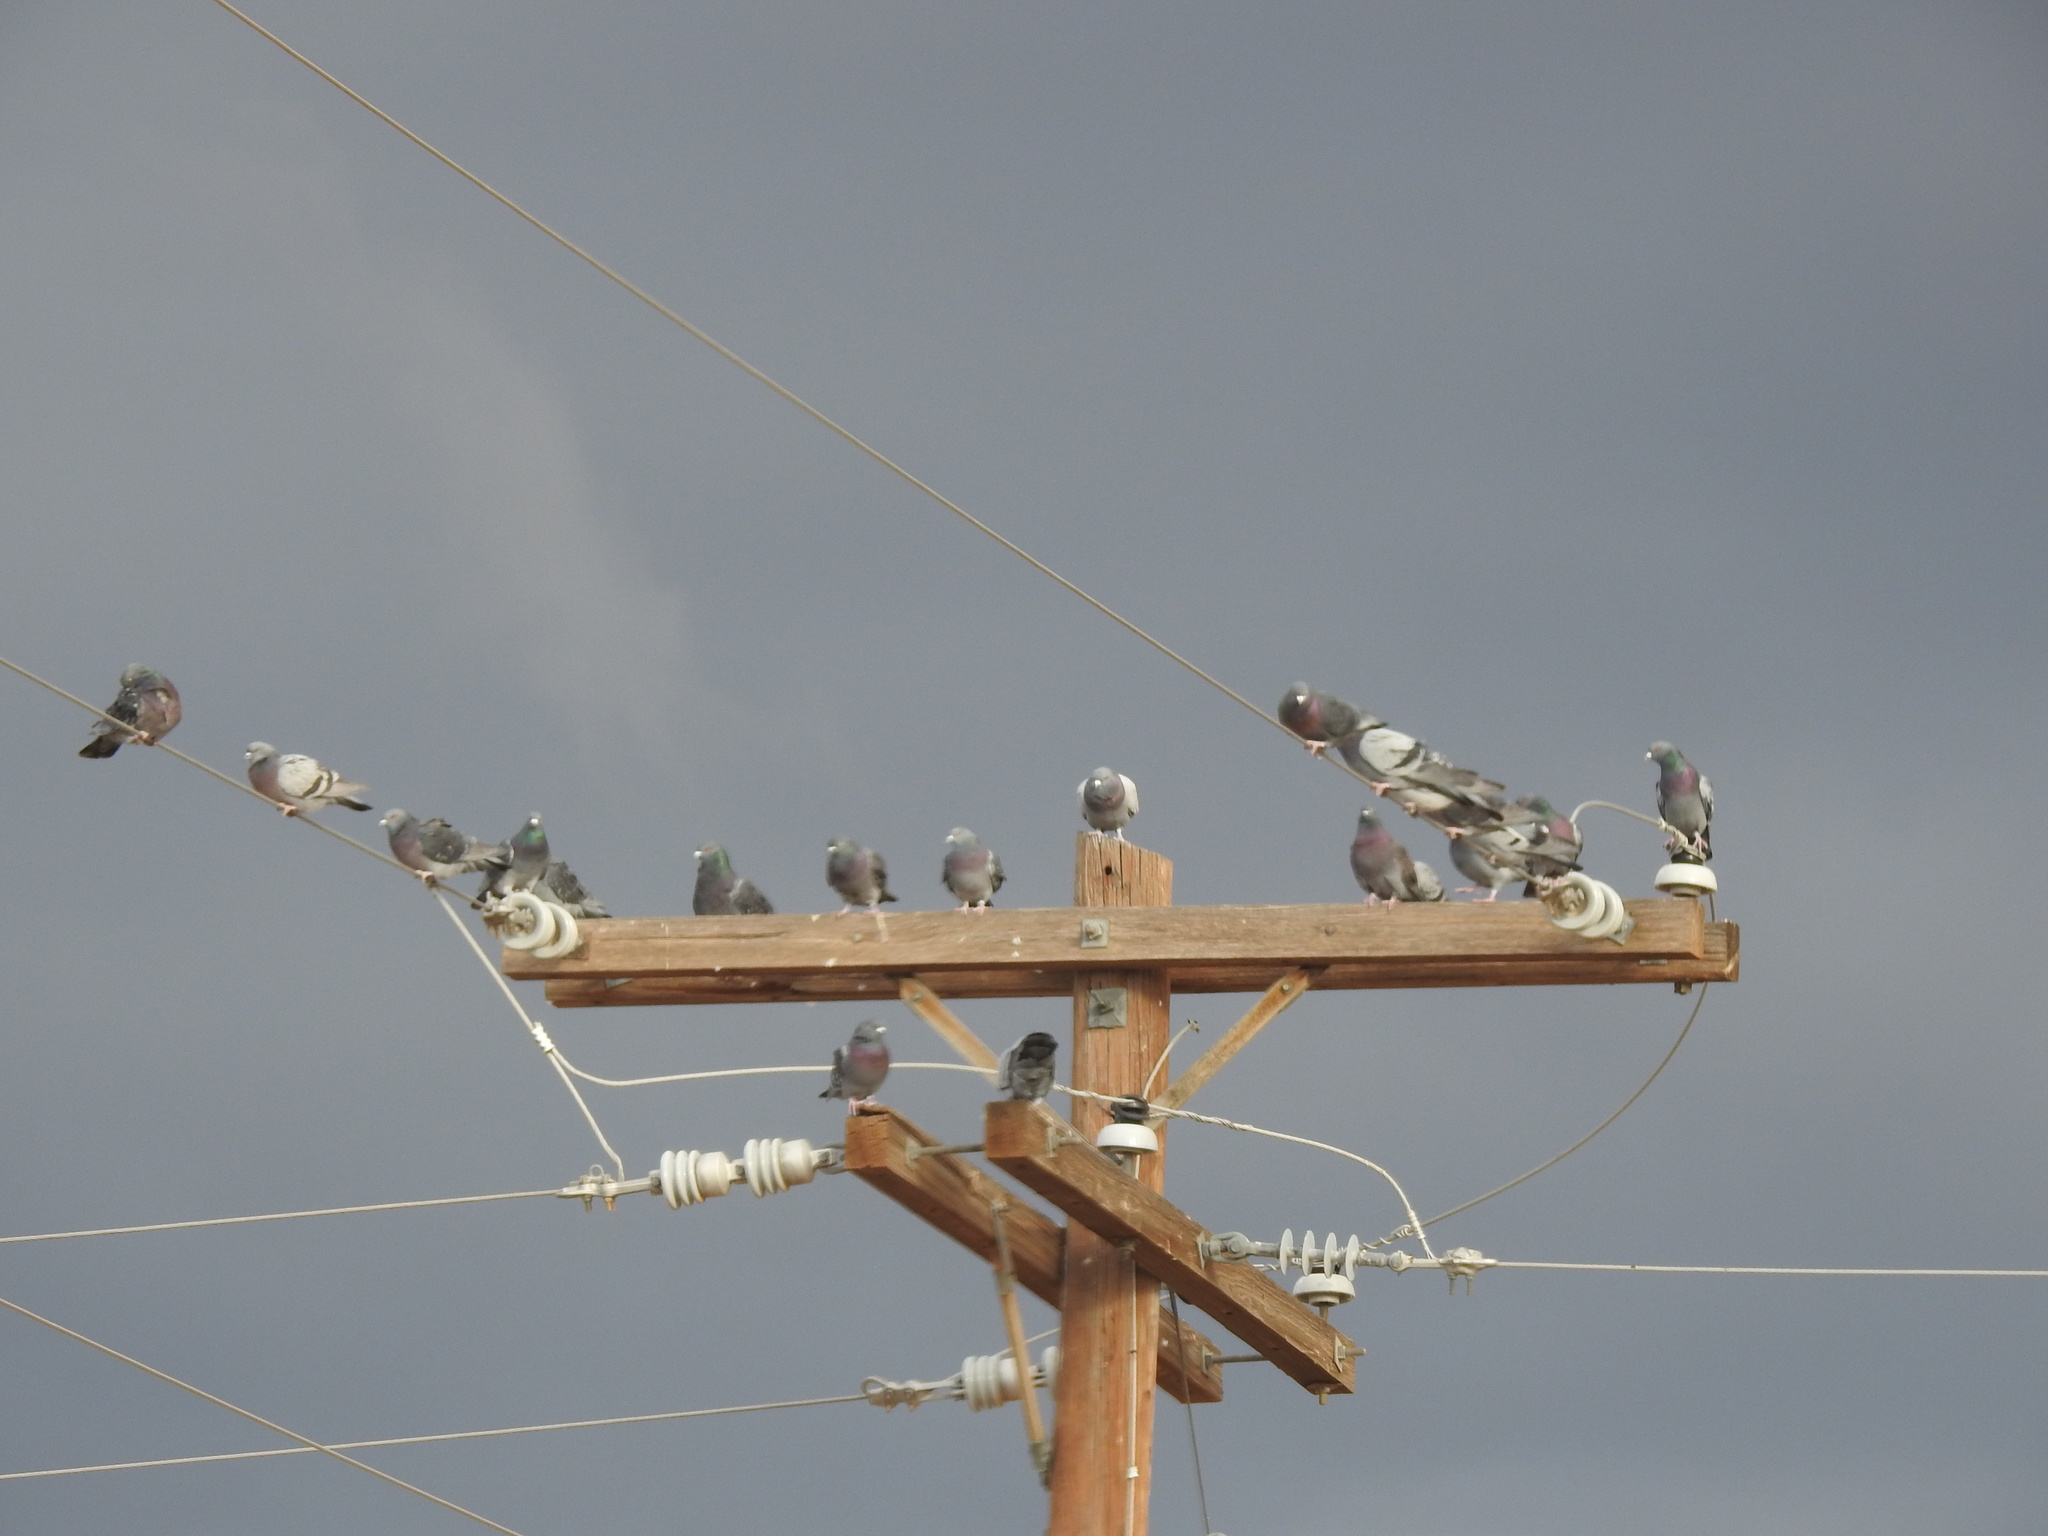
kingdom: Animalia
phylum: Chordata
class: Aves
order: Columbiformes
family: Columbidae
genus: Columba
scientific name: Columba livia
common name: Rock pigeon
